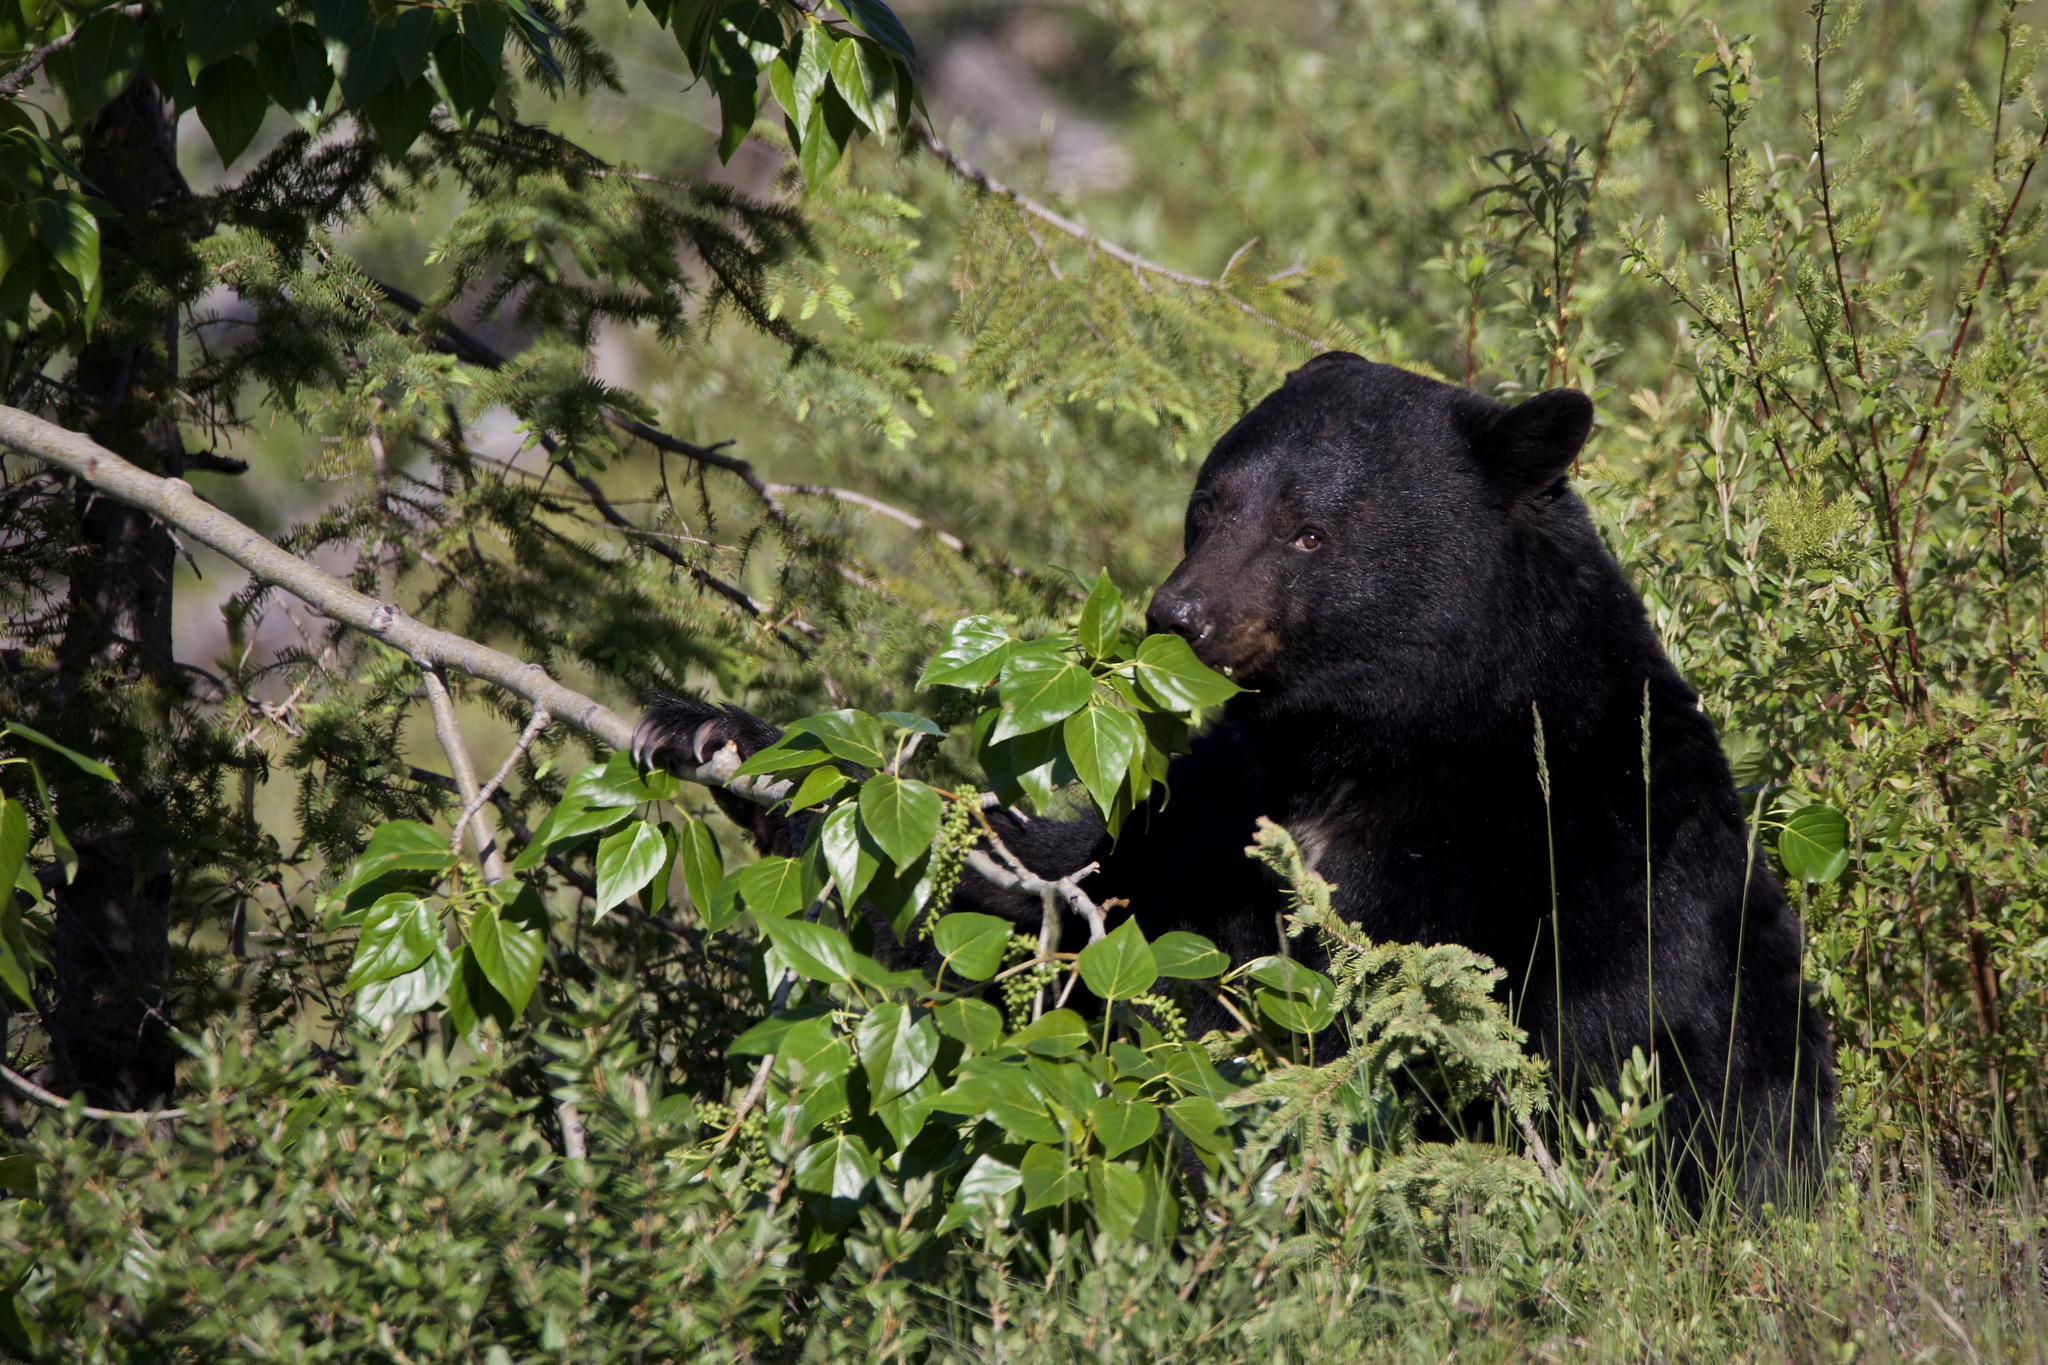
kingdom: Animalia
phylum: Chordata
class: Mammalia
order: Carnivora
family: Ursidae
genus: Ursus
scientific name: Ursus americanus
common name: American black bear
